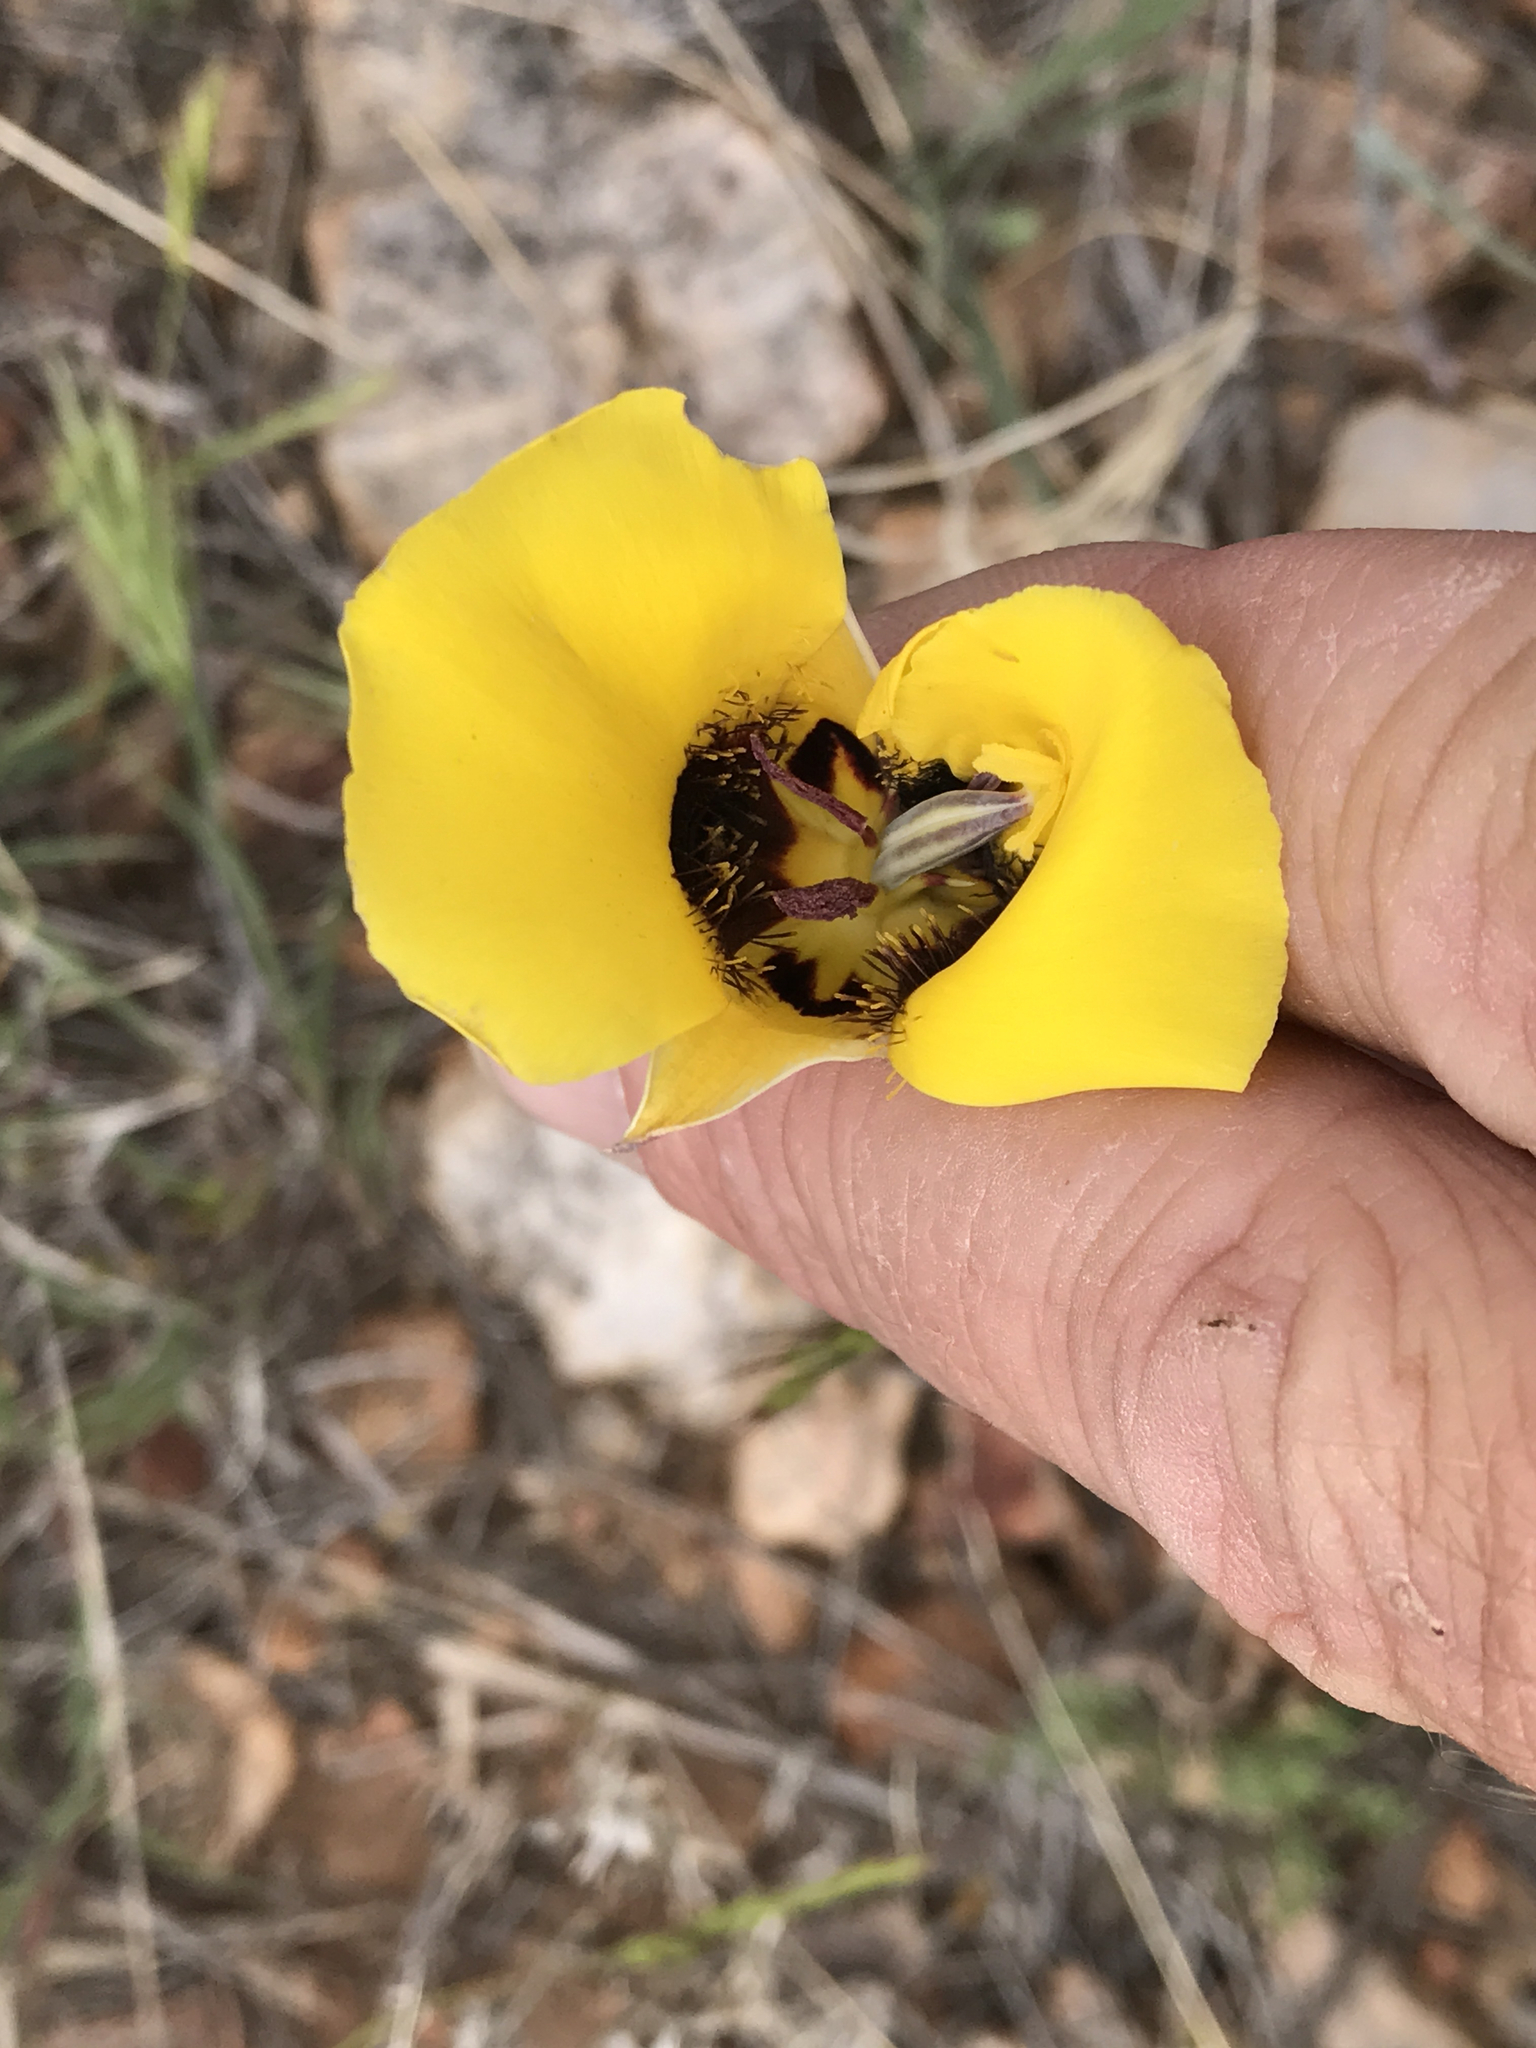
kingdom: Plantae
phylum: Tracheophyta
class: Liliopsida
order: Liliales
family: Liliaceae
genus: Calochortus
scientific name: Calochortus kennedyi
